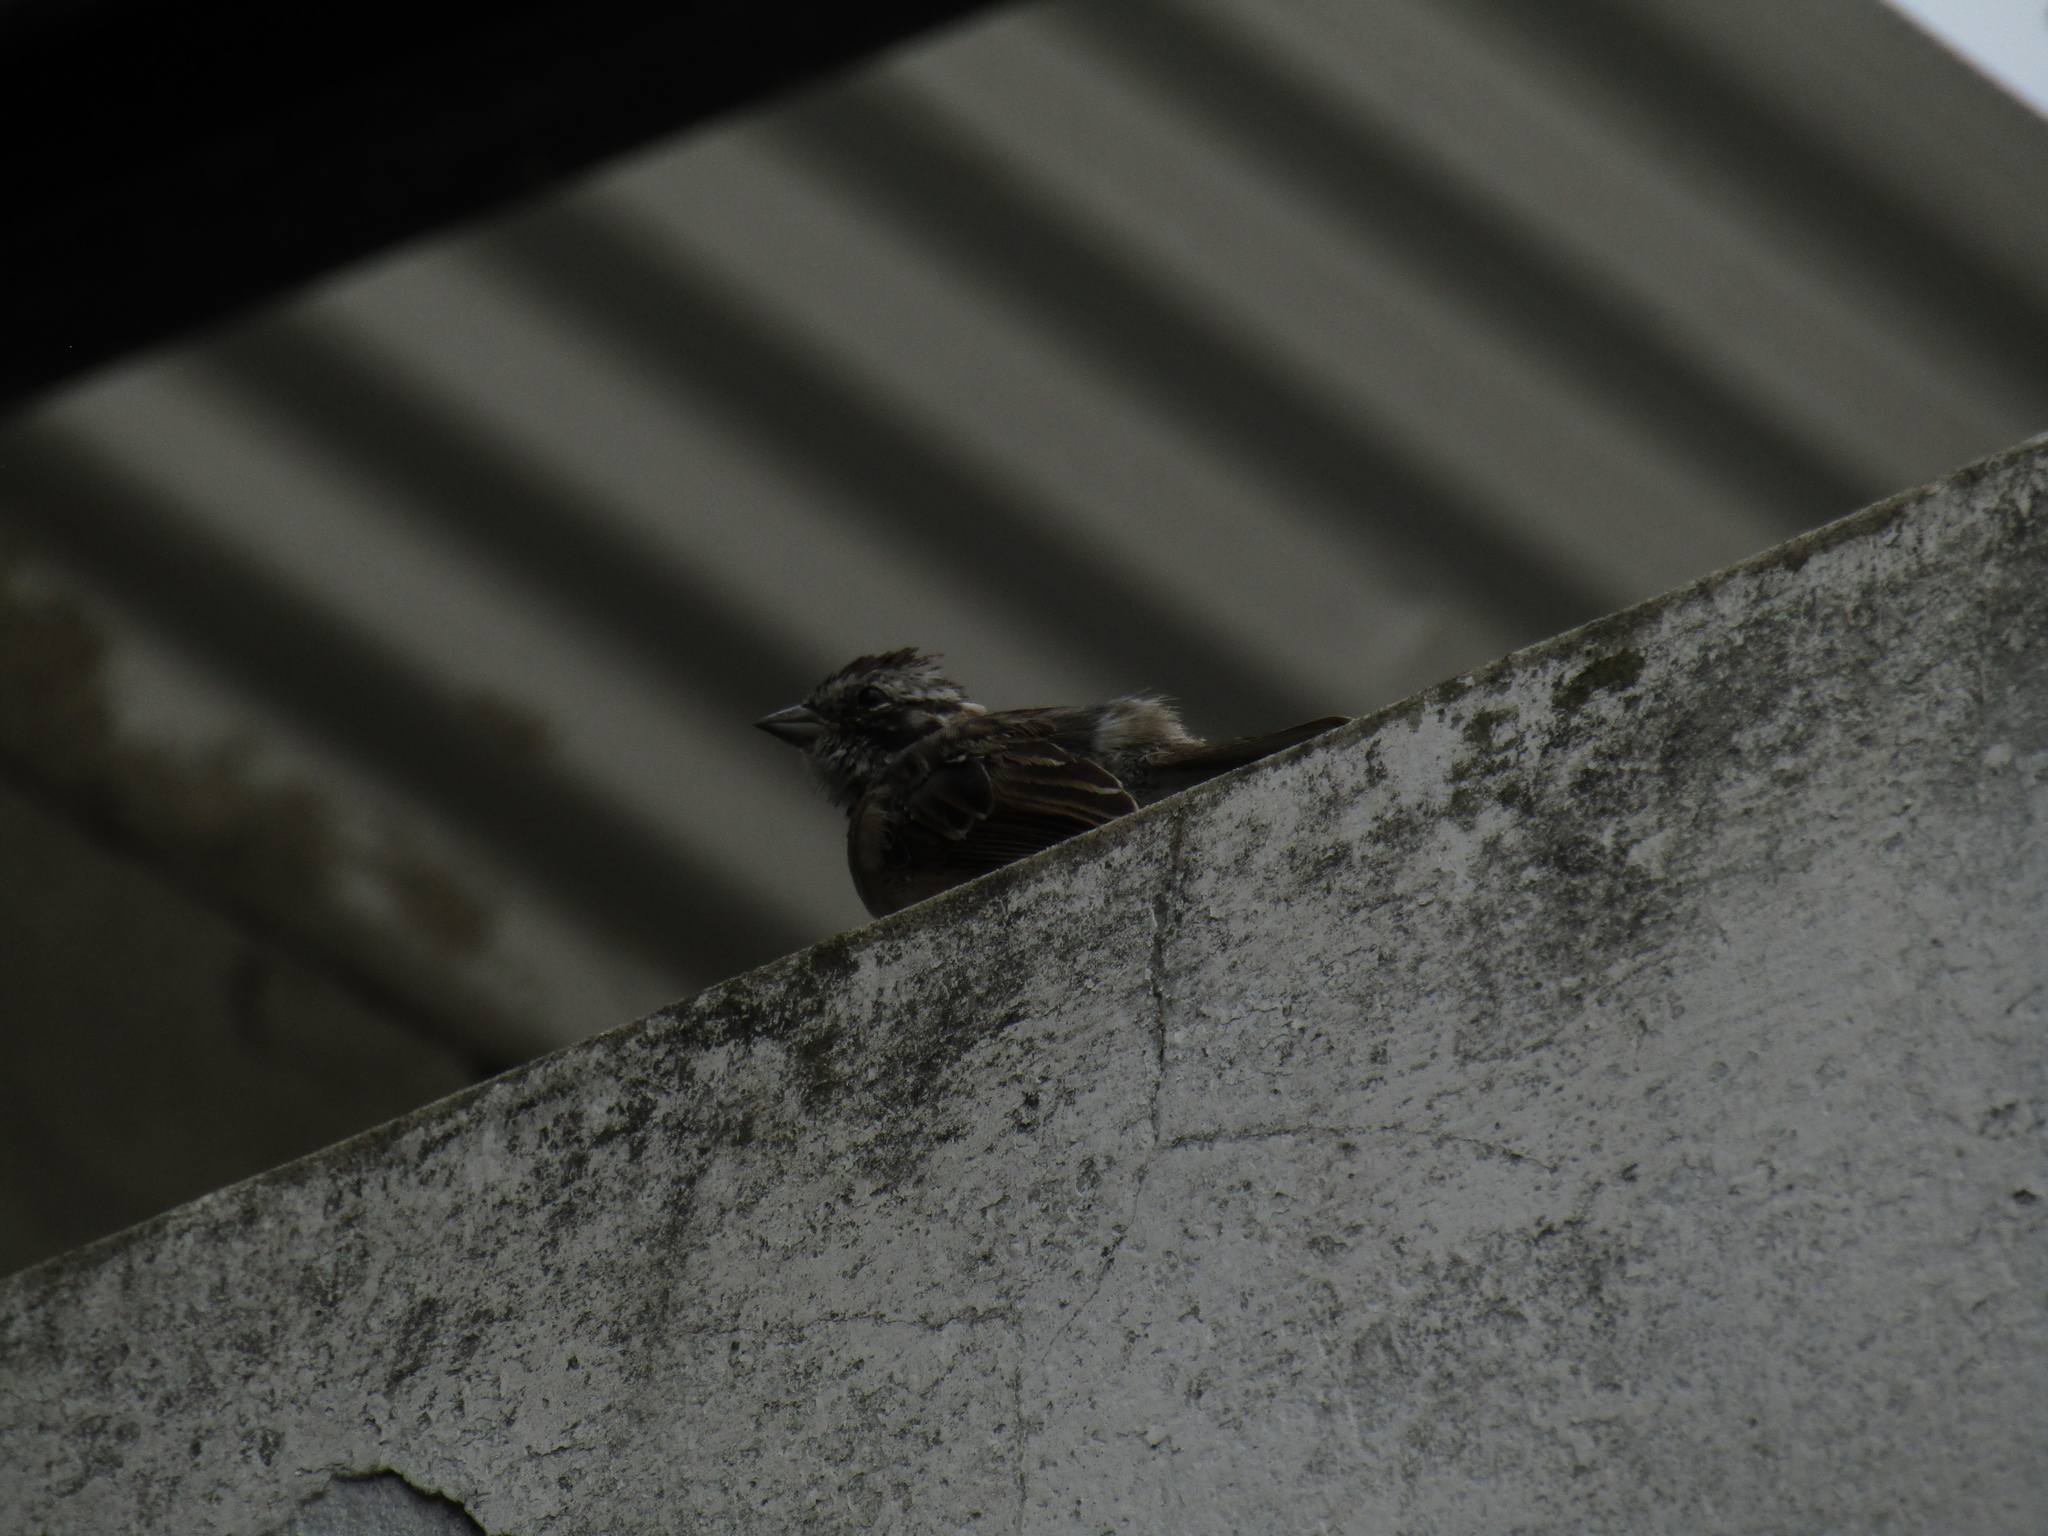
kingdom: Animalia
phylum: Chordata
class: Aves
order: Passeriformes
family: Passerellidae
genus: Zonotrichia
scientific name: Zonotrichia capensis
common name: Rufous-collared sparrow
